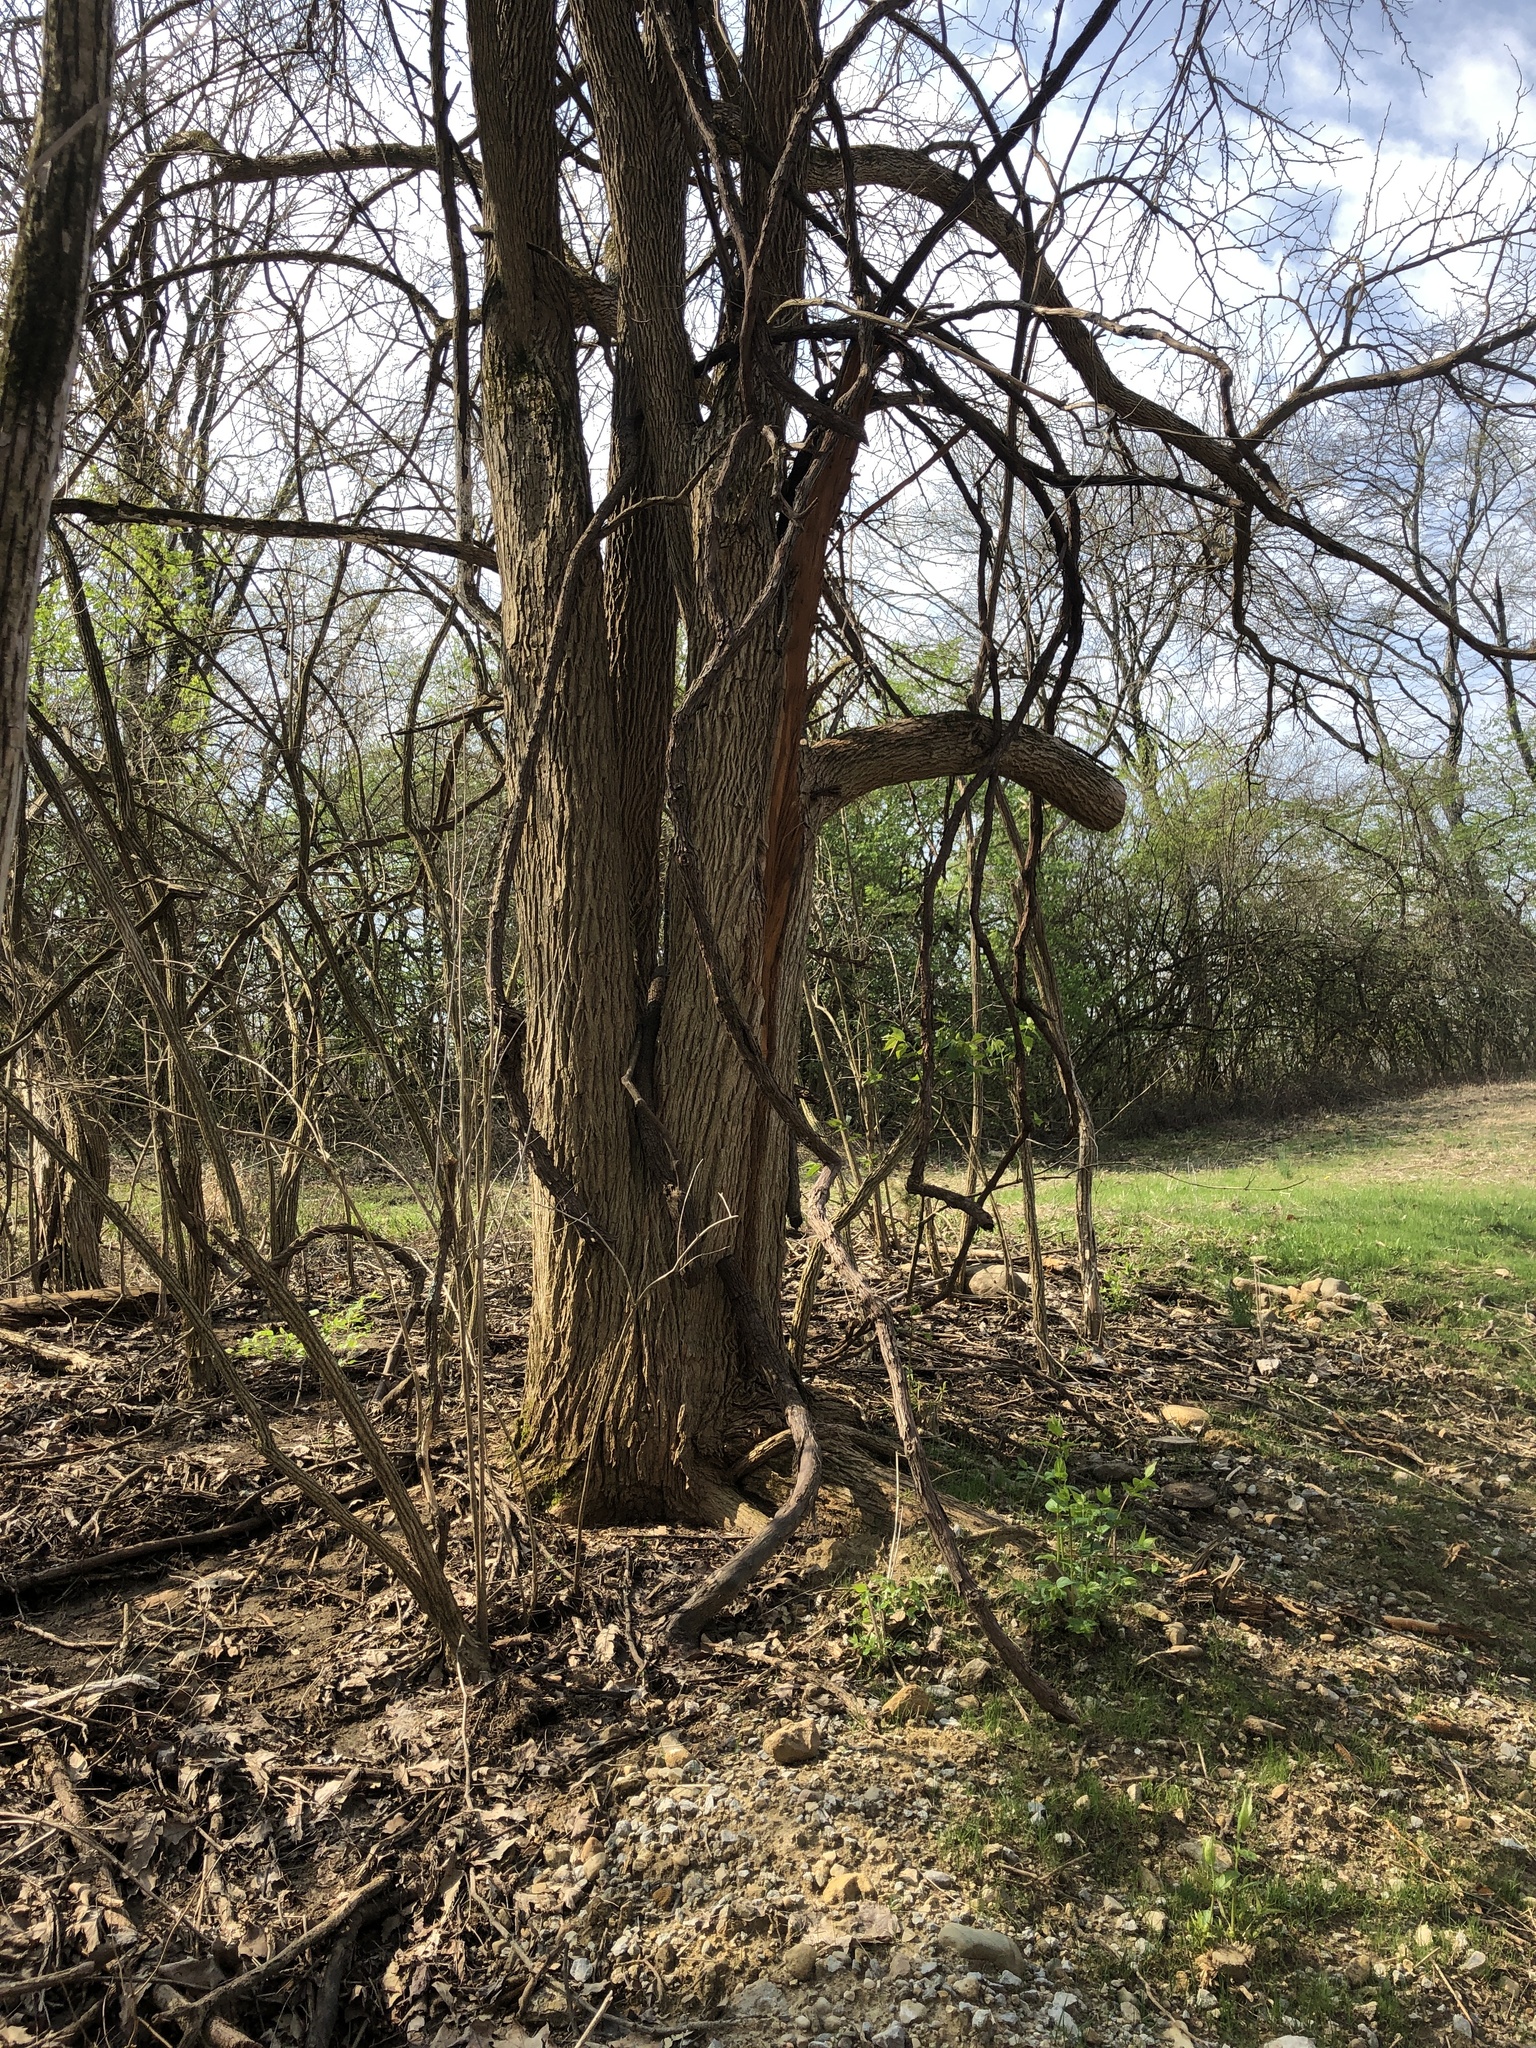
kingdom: Plantae
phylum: Tracheophyta
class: Magnoliopsida
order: Rosales
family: Moraceae
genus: Maclura
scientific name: Maclura pomifera
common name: Osage-orange
